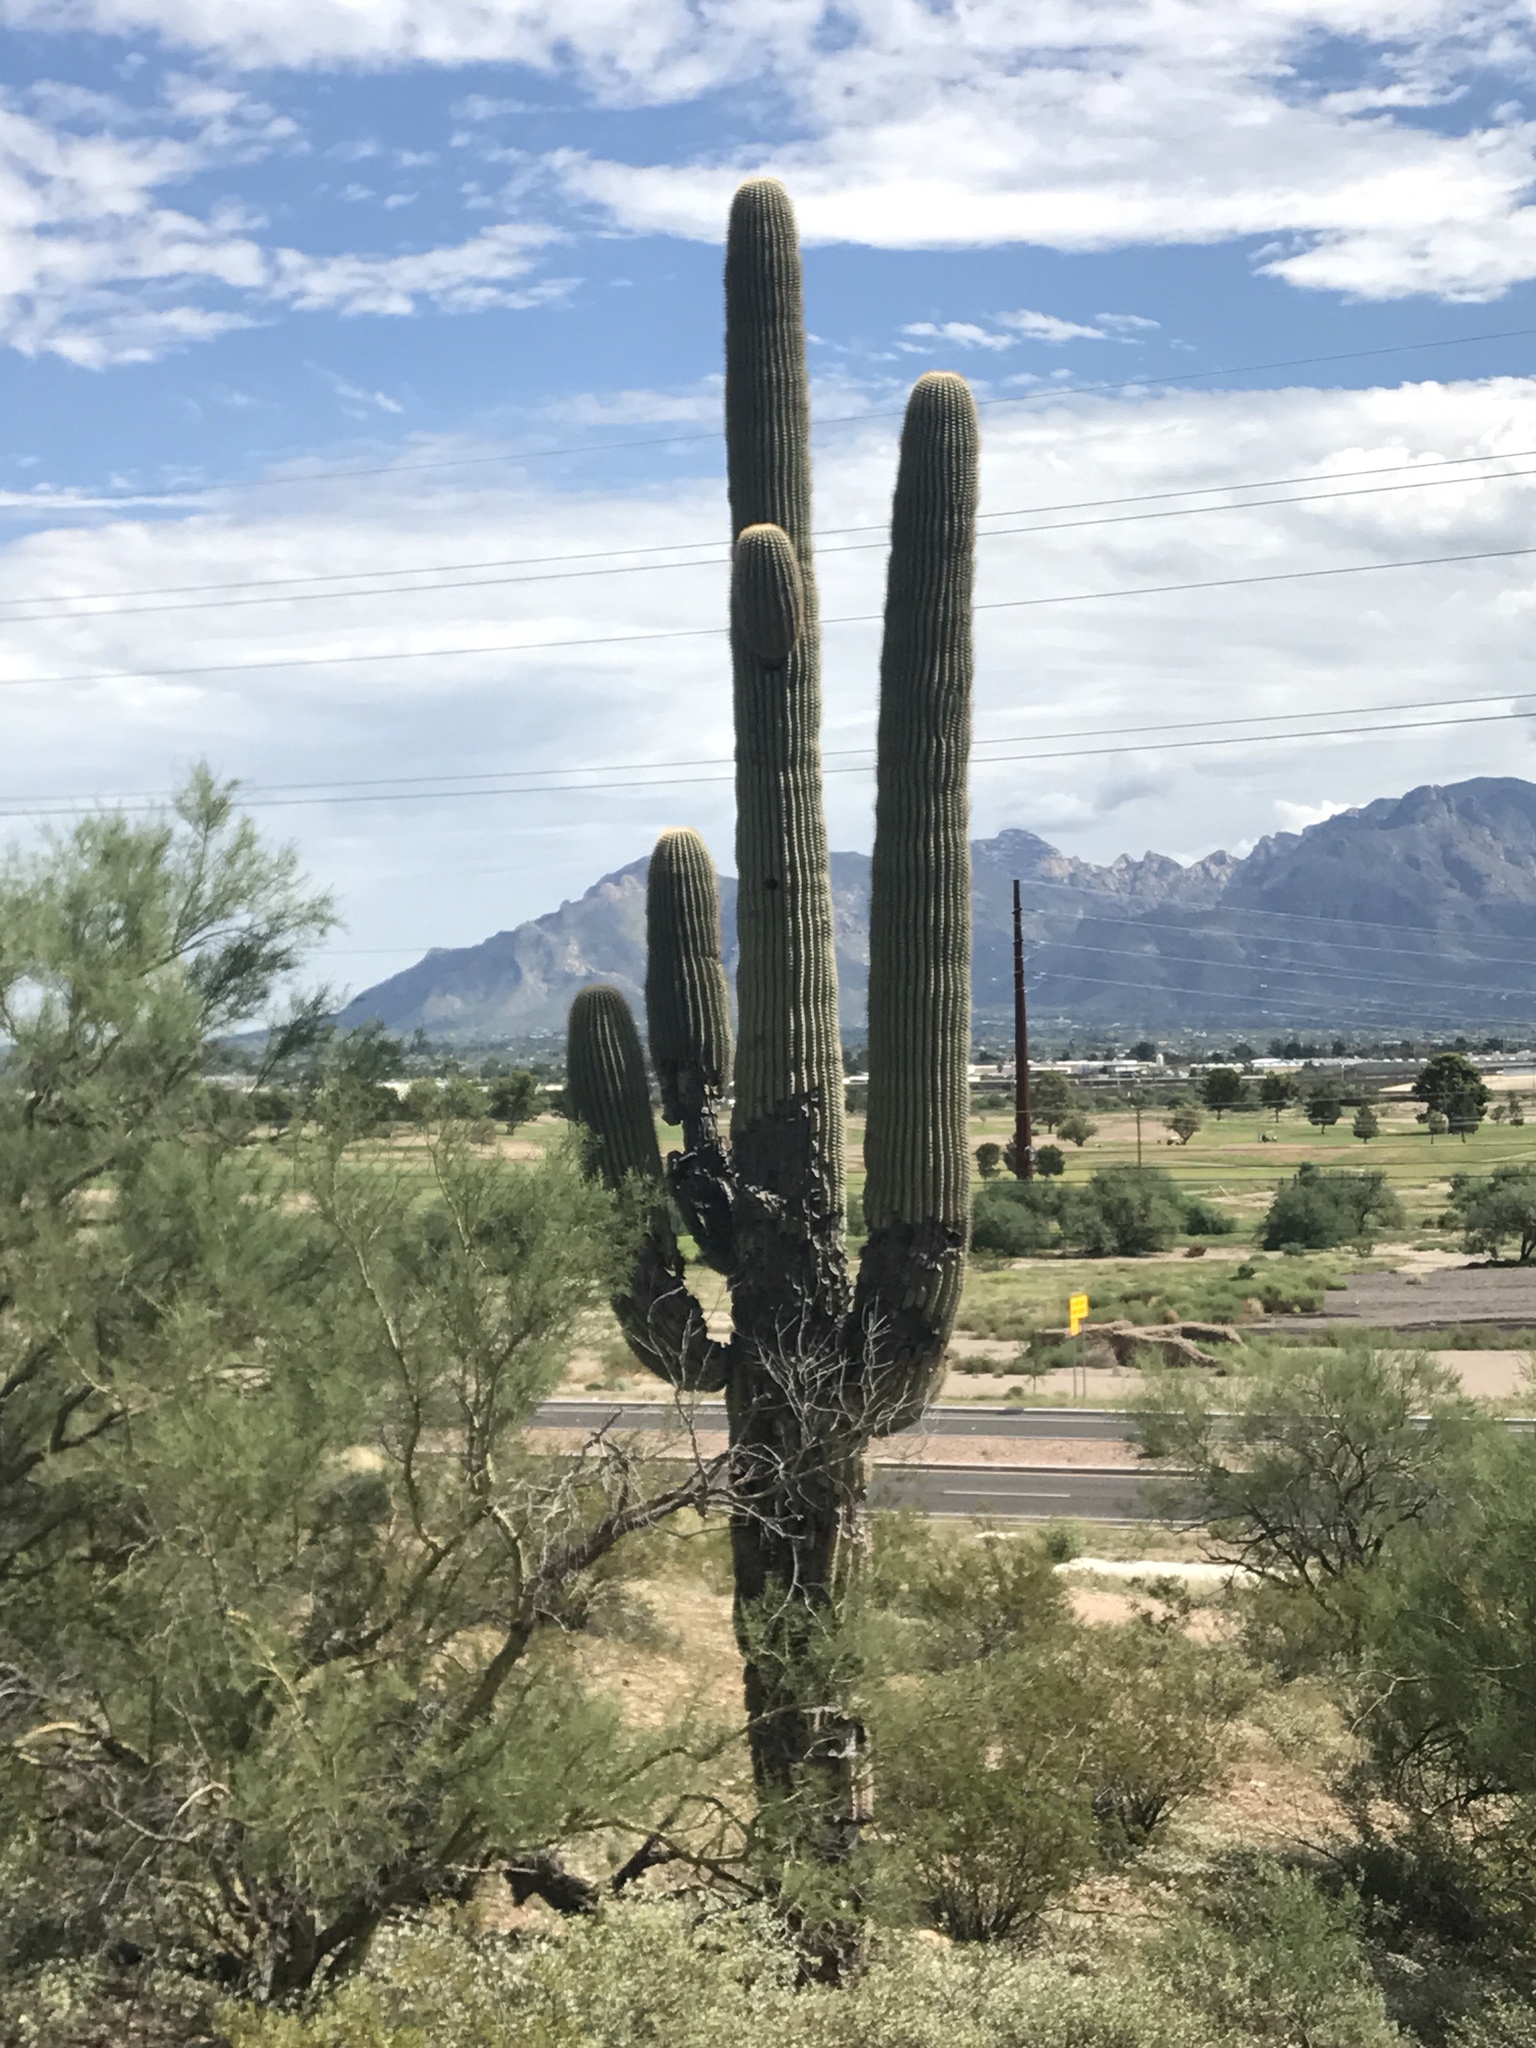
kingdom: Plantae
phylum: Tracheophyta
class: Magnoliopsida
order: Caryophyllales
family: Cactaceae
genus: Carnegiea
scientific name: Carnegiea gigantea
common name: Saguaro
